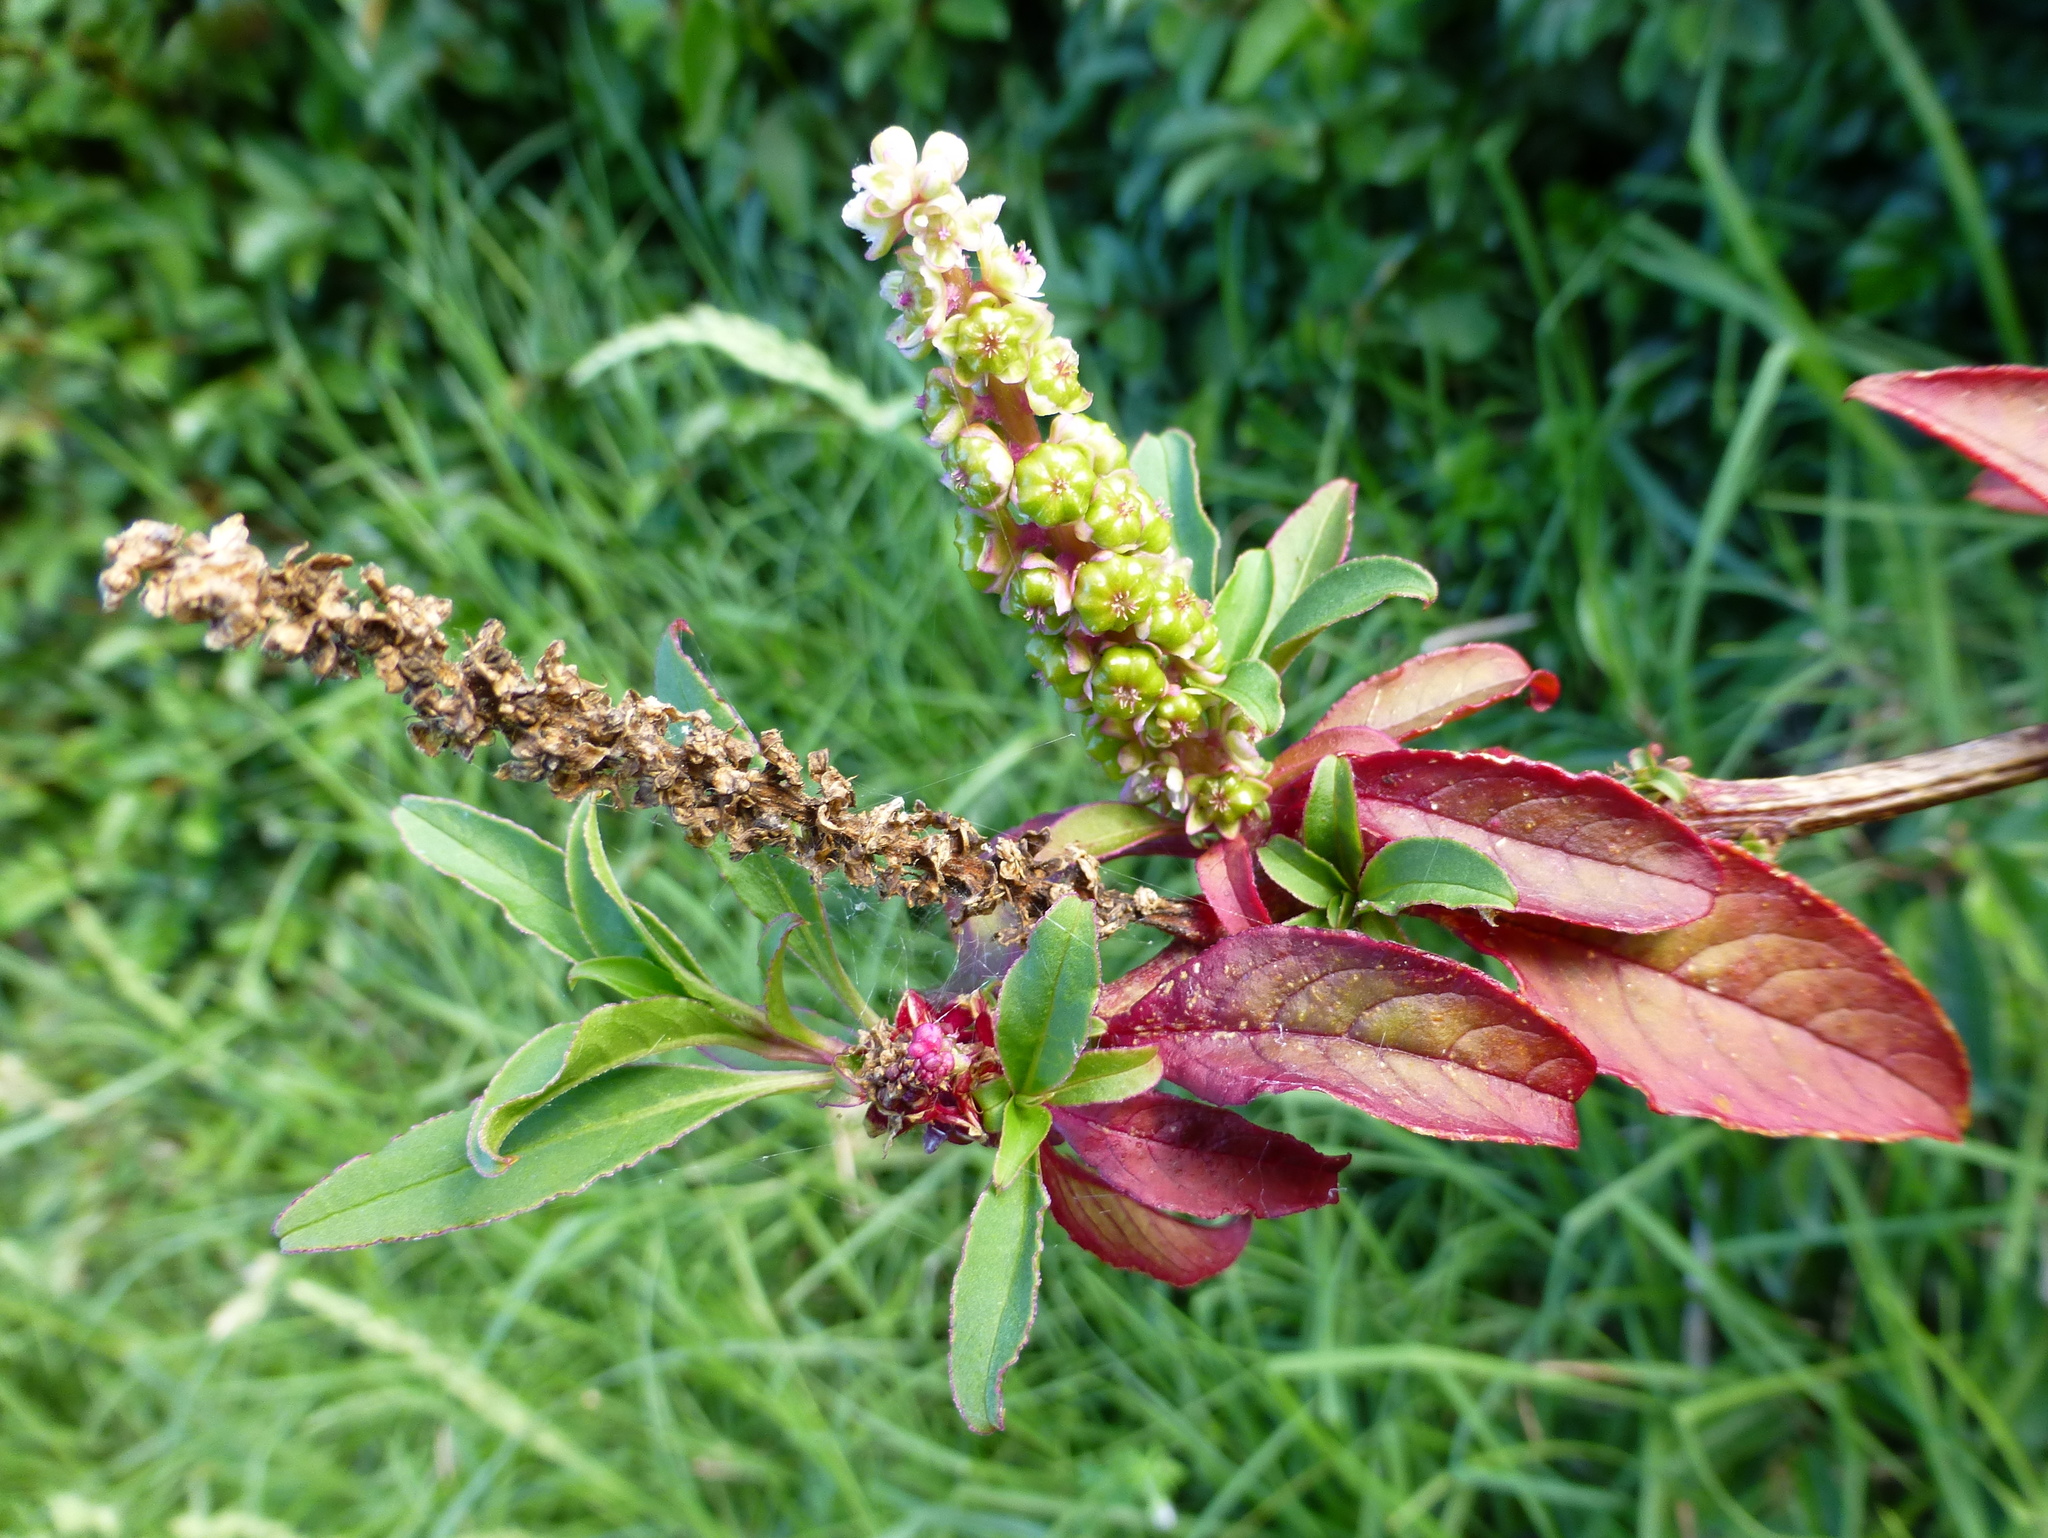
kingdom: Plantae
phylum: Tracheophyta
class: Magnoliopsida
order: Caryophyllales
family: Phytolaccaceae
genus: Phytolacca
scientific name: Phytolacca icosandra
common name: Button pokeweed
